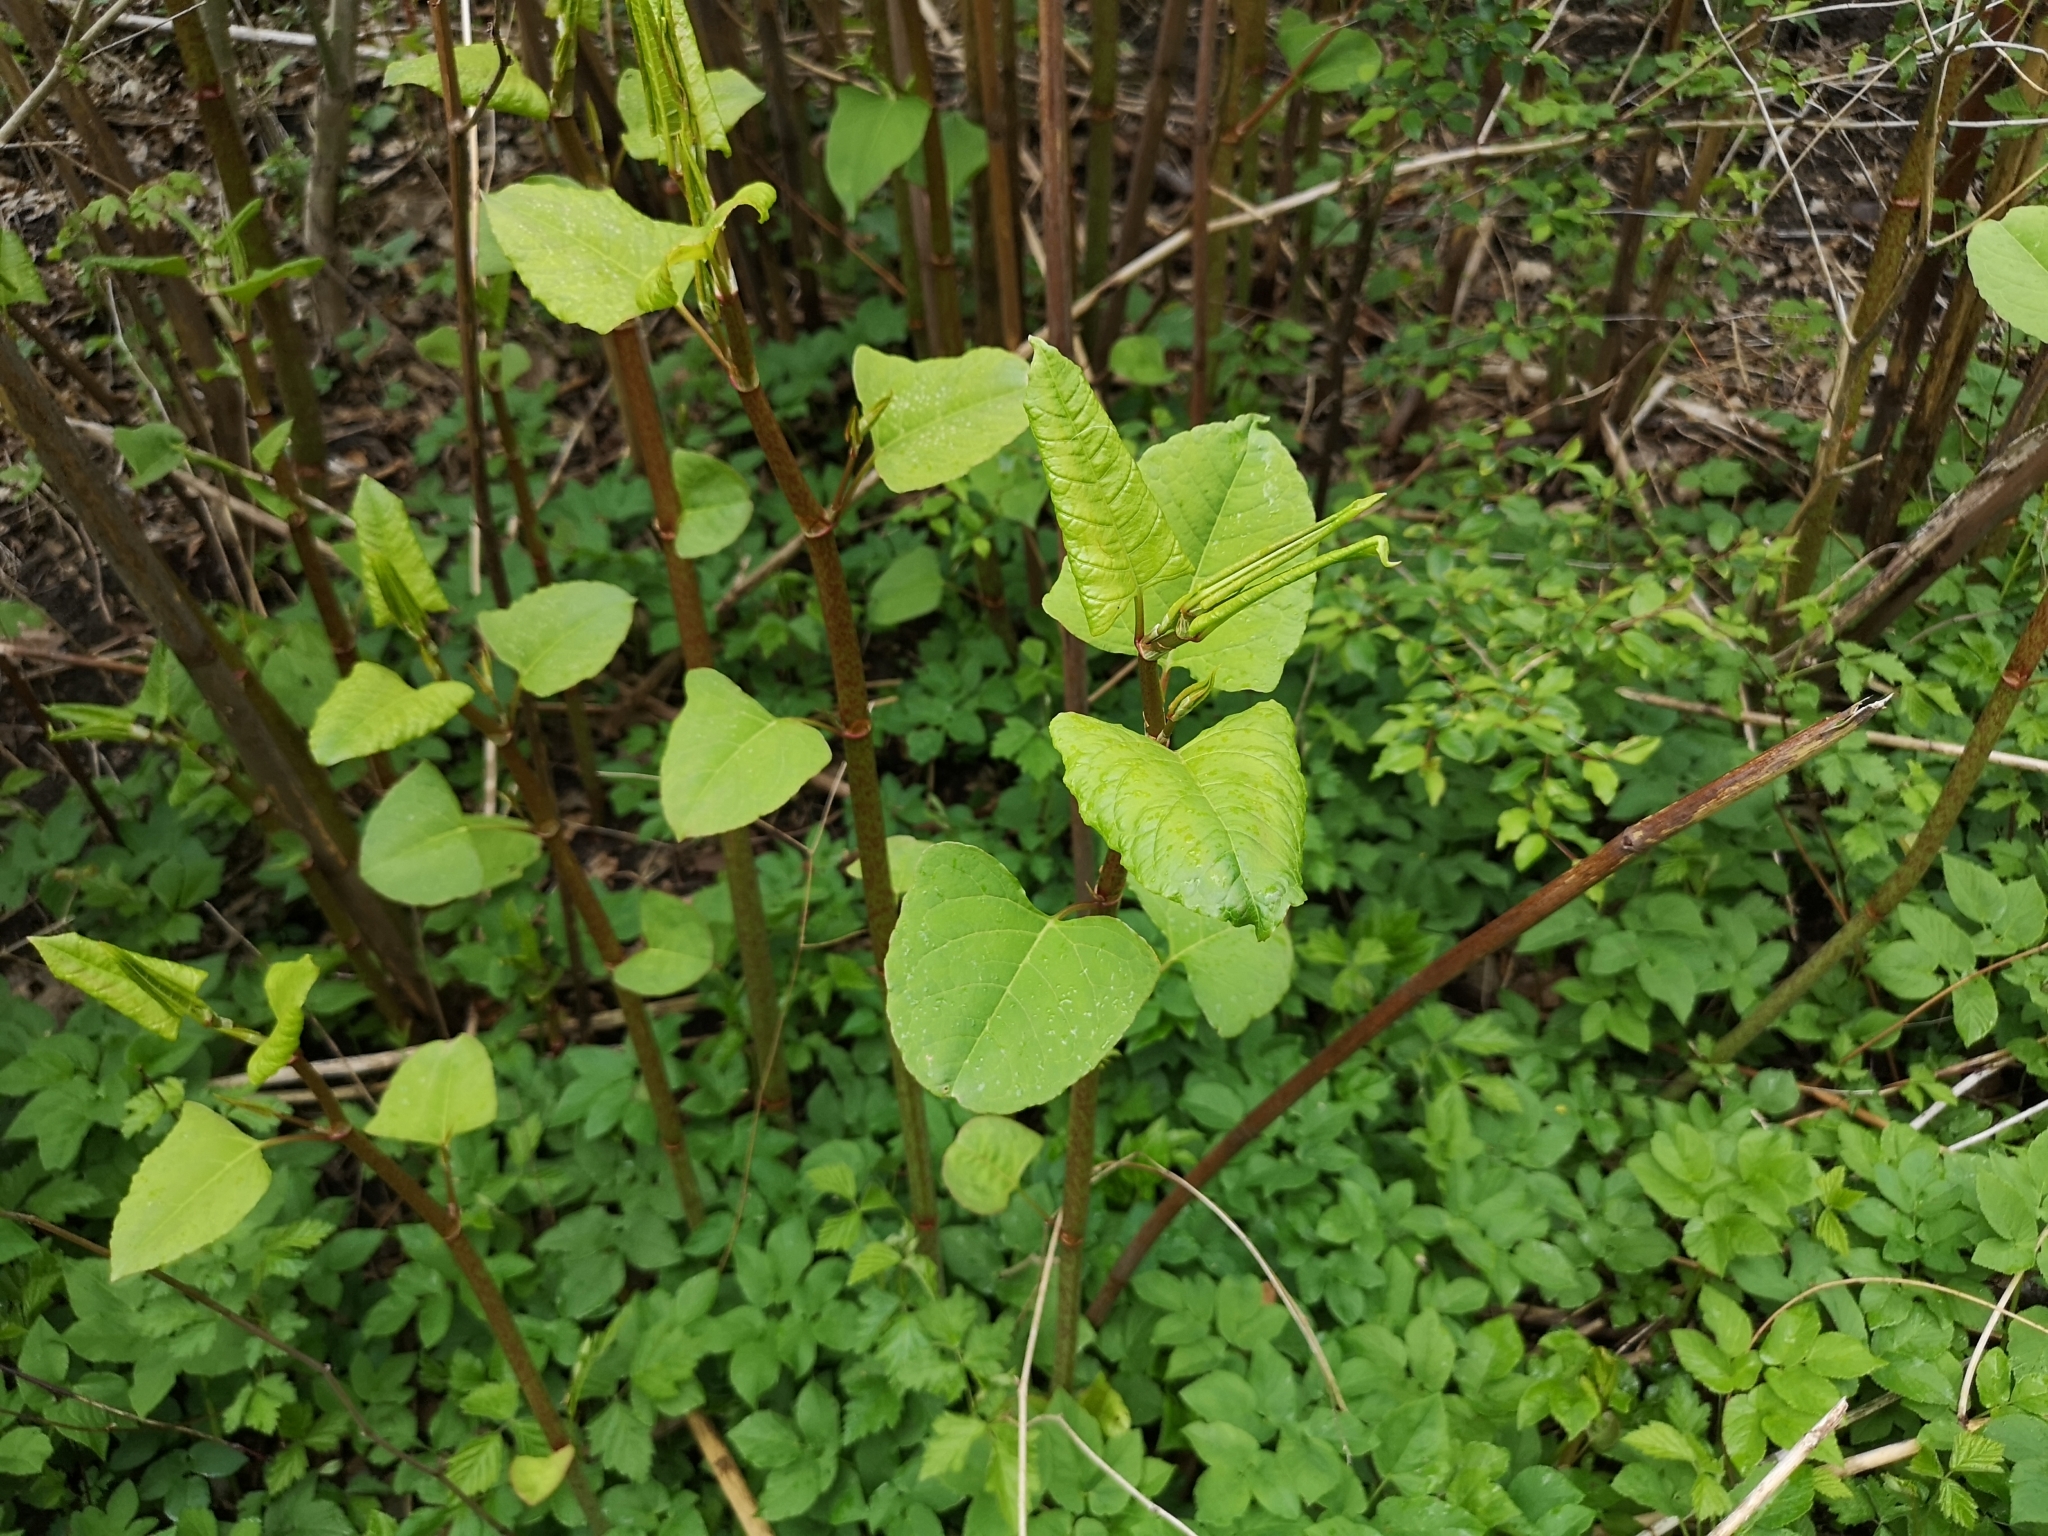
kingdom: Plantae
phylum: Tracheophyta
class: Magnoliopsida
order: Caryophyllales
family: Polygonaceae
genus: Reynoutria
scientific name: Reynoutria bohemica
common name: Bohemian knotweed
